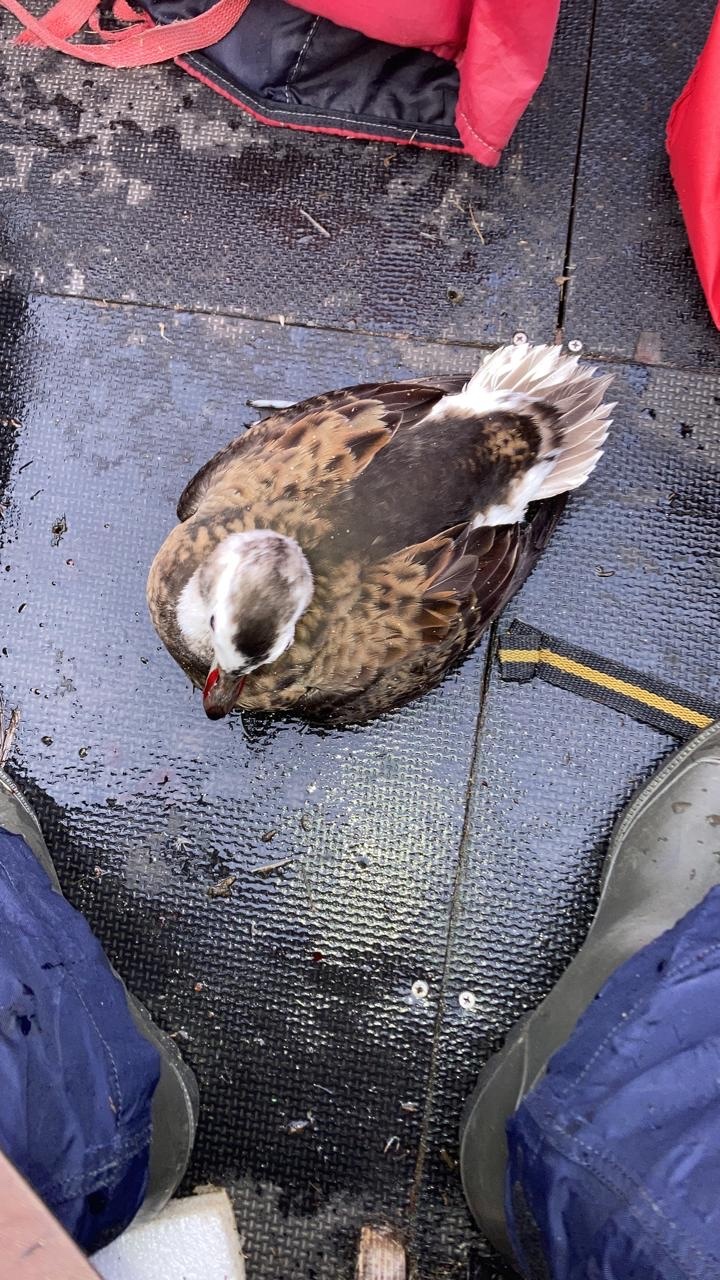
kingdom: Animalia
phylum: Chordata
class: Aves
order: Anseriformes
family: Anatidae
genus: Clangula
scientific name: Clangula hyemalis
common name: Long-tailed duck
